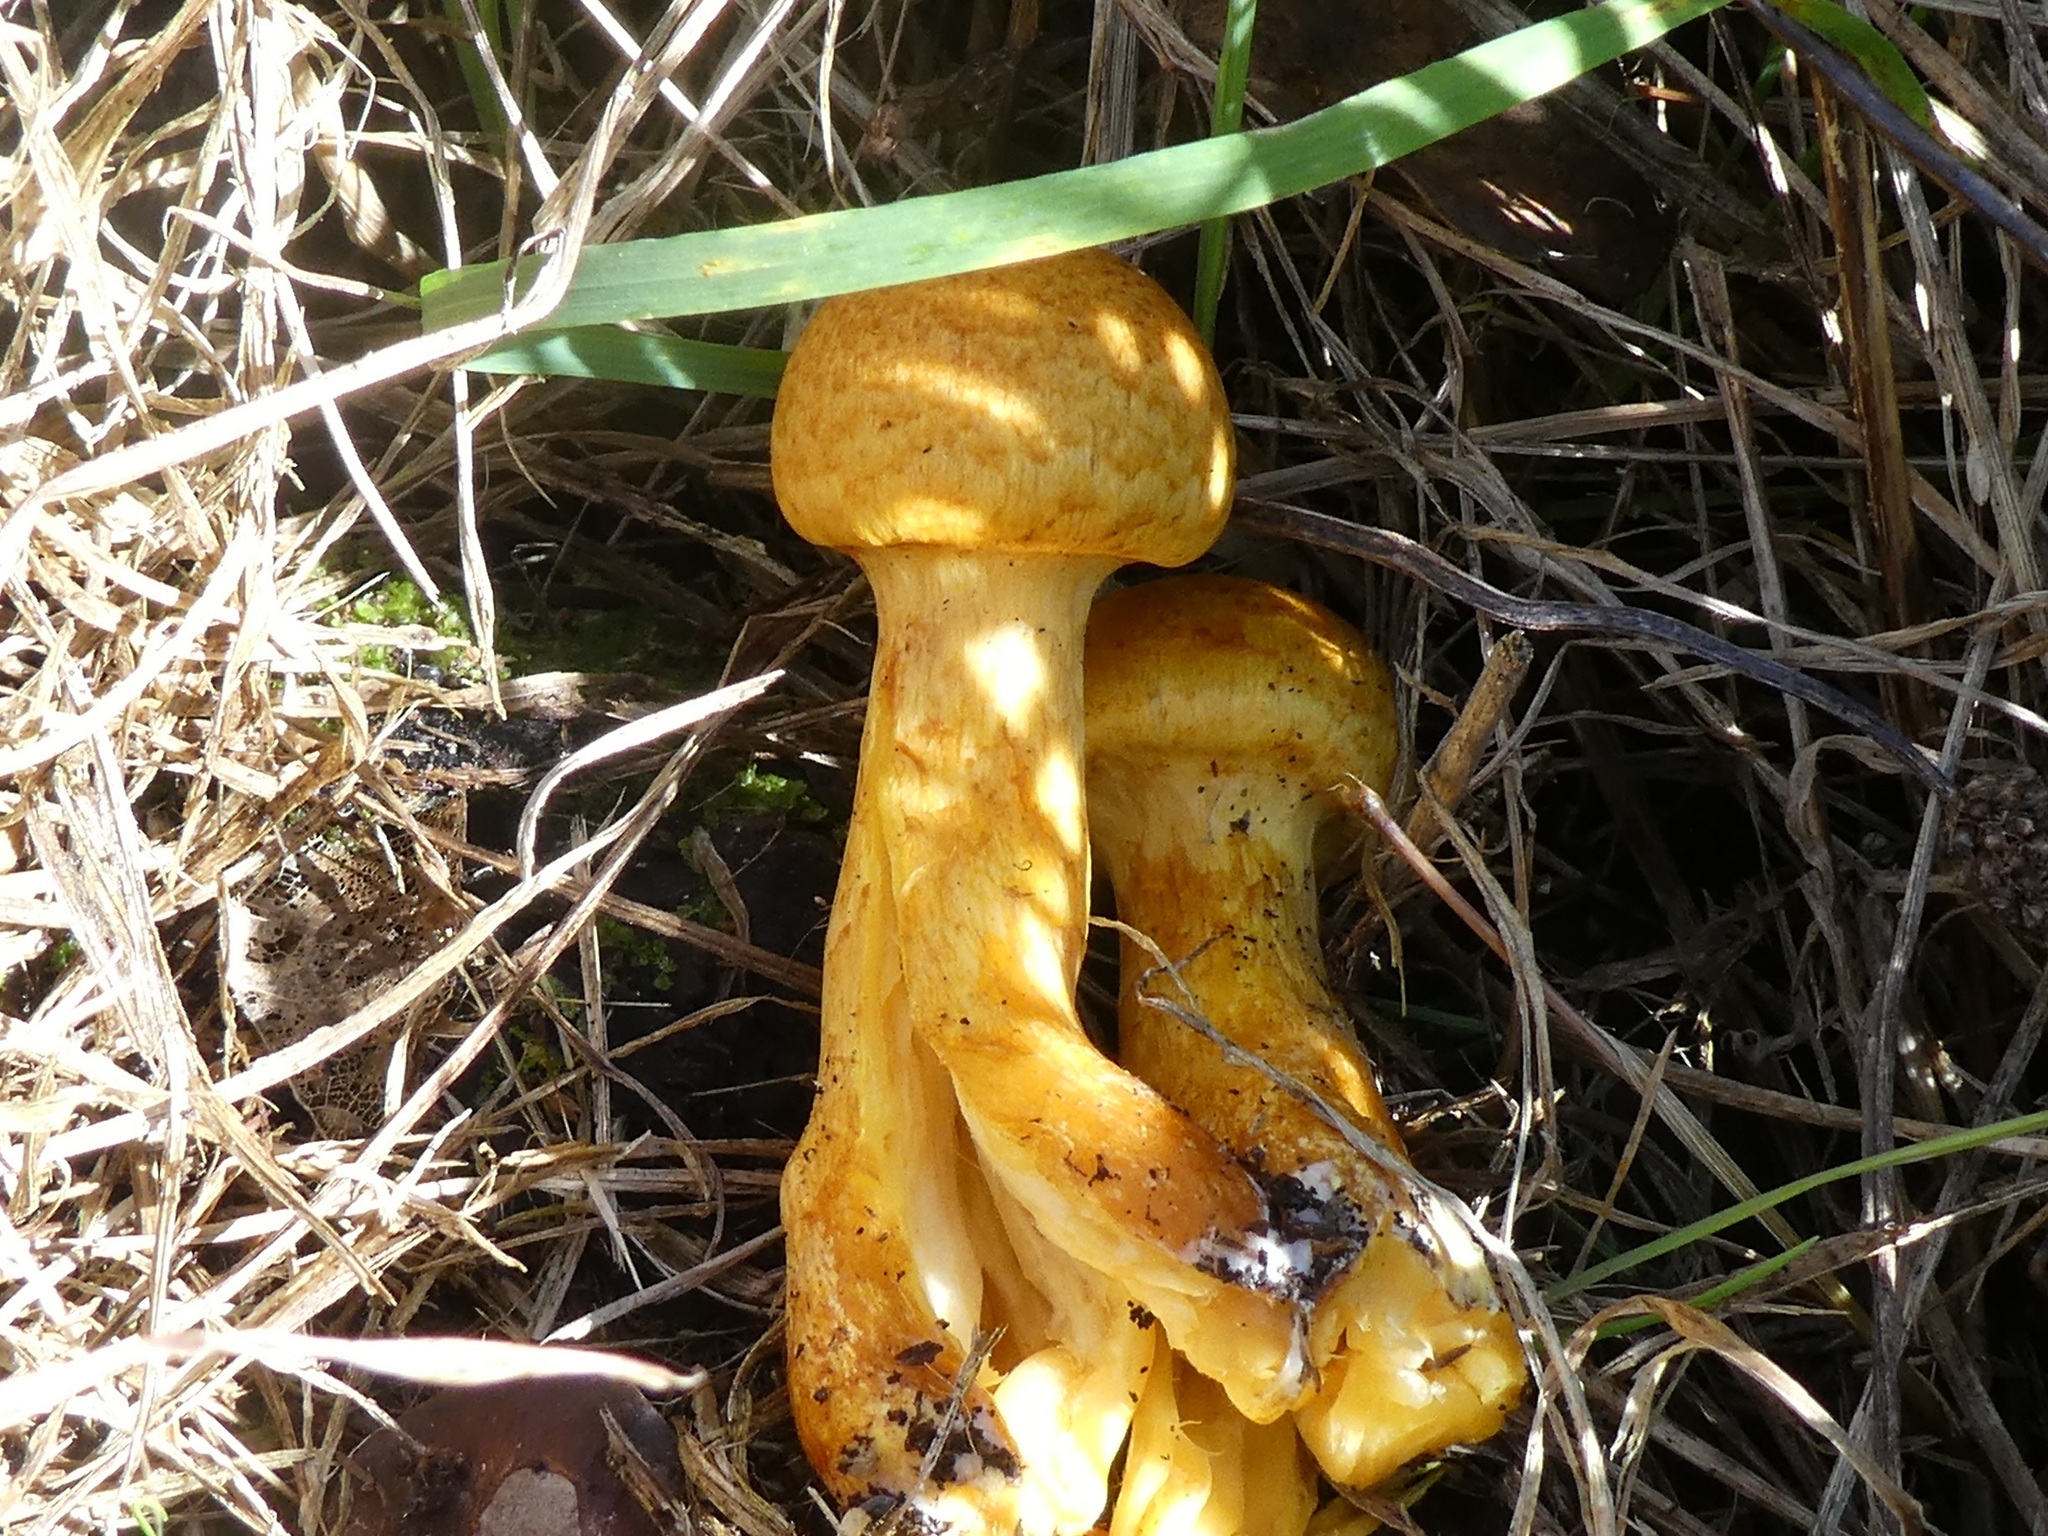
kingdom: Fungi
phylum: Basidiomycota
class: Agaricomycetes
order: Agaricales
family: Hymenogastraceae
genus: Gymnopilus
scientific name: Gymnopilus junonius
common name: Spectacular rustgill
